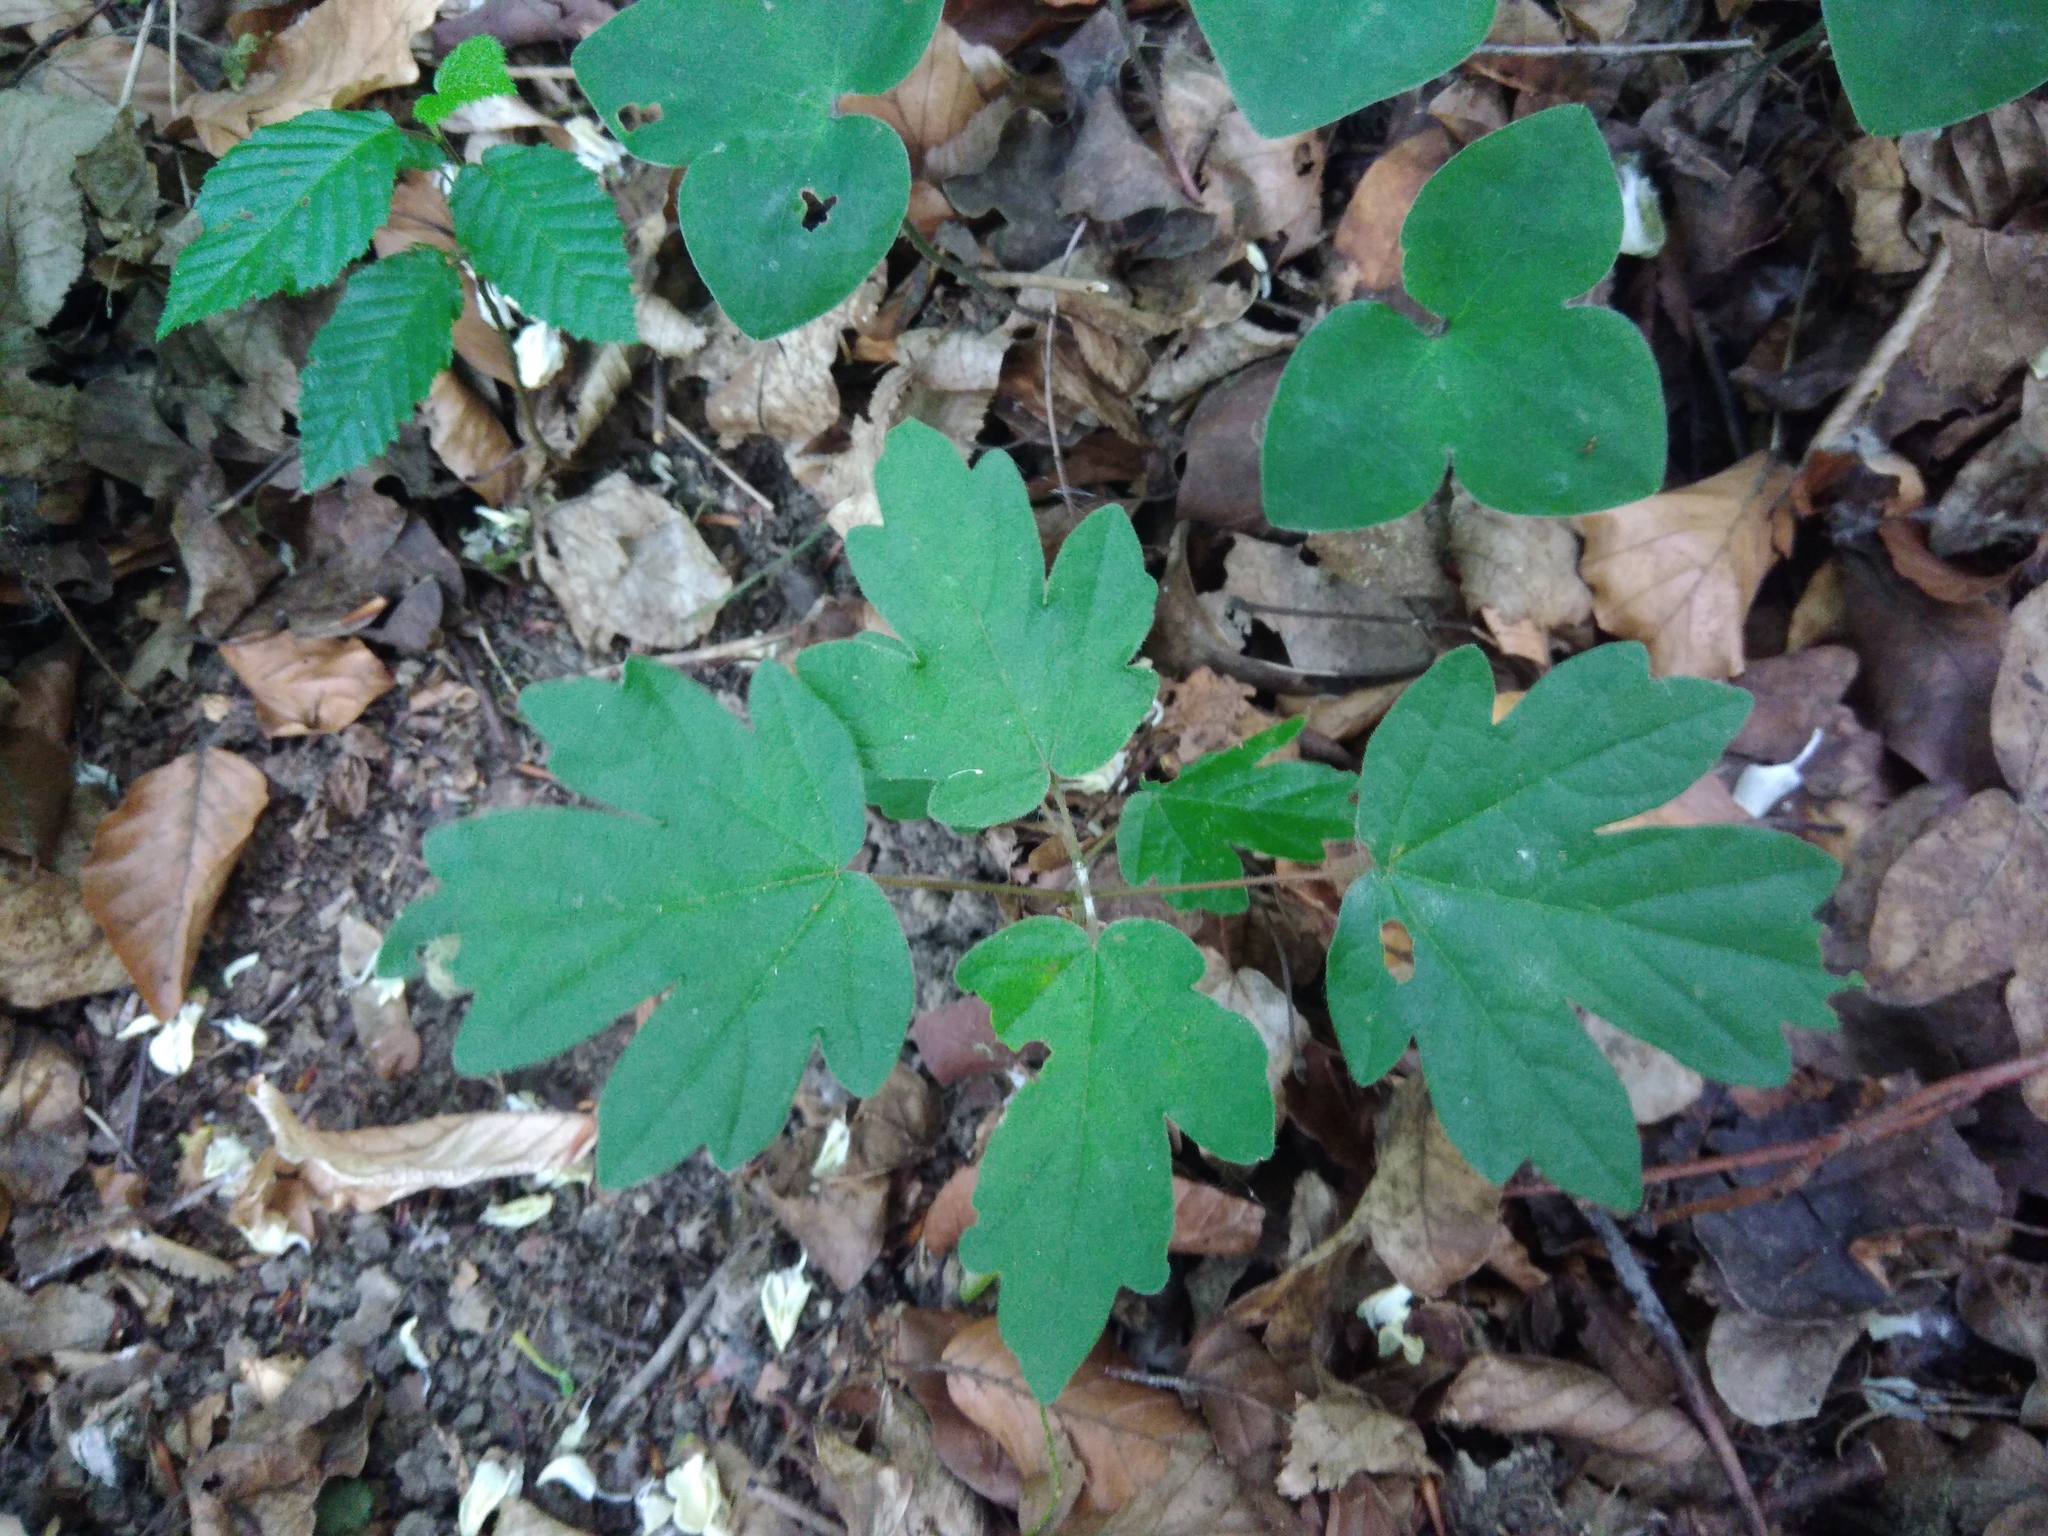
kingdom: Plantae
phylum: Tracheophyta
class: Magnoliopsida
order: Sapindales
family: Sapindaceae
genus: Acer
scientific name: Acer campestre
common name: Field maple
